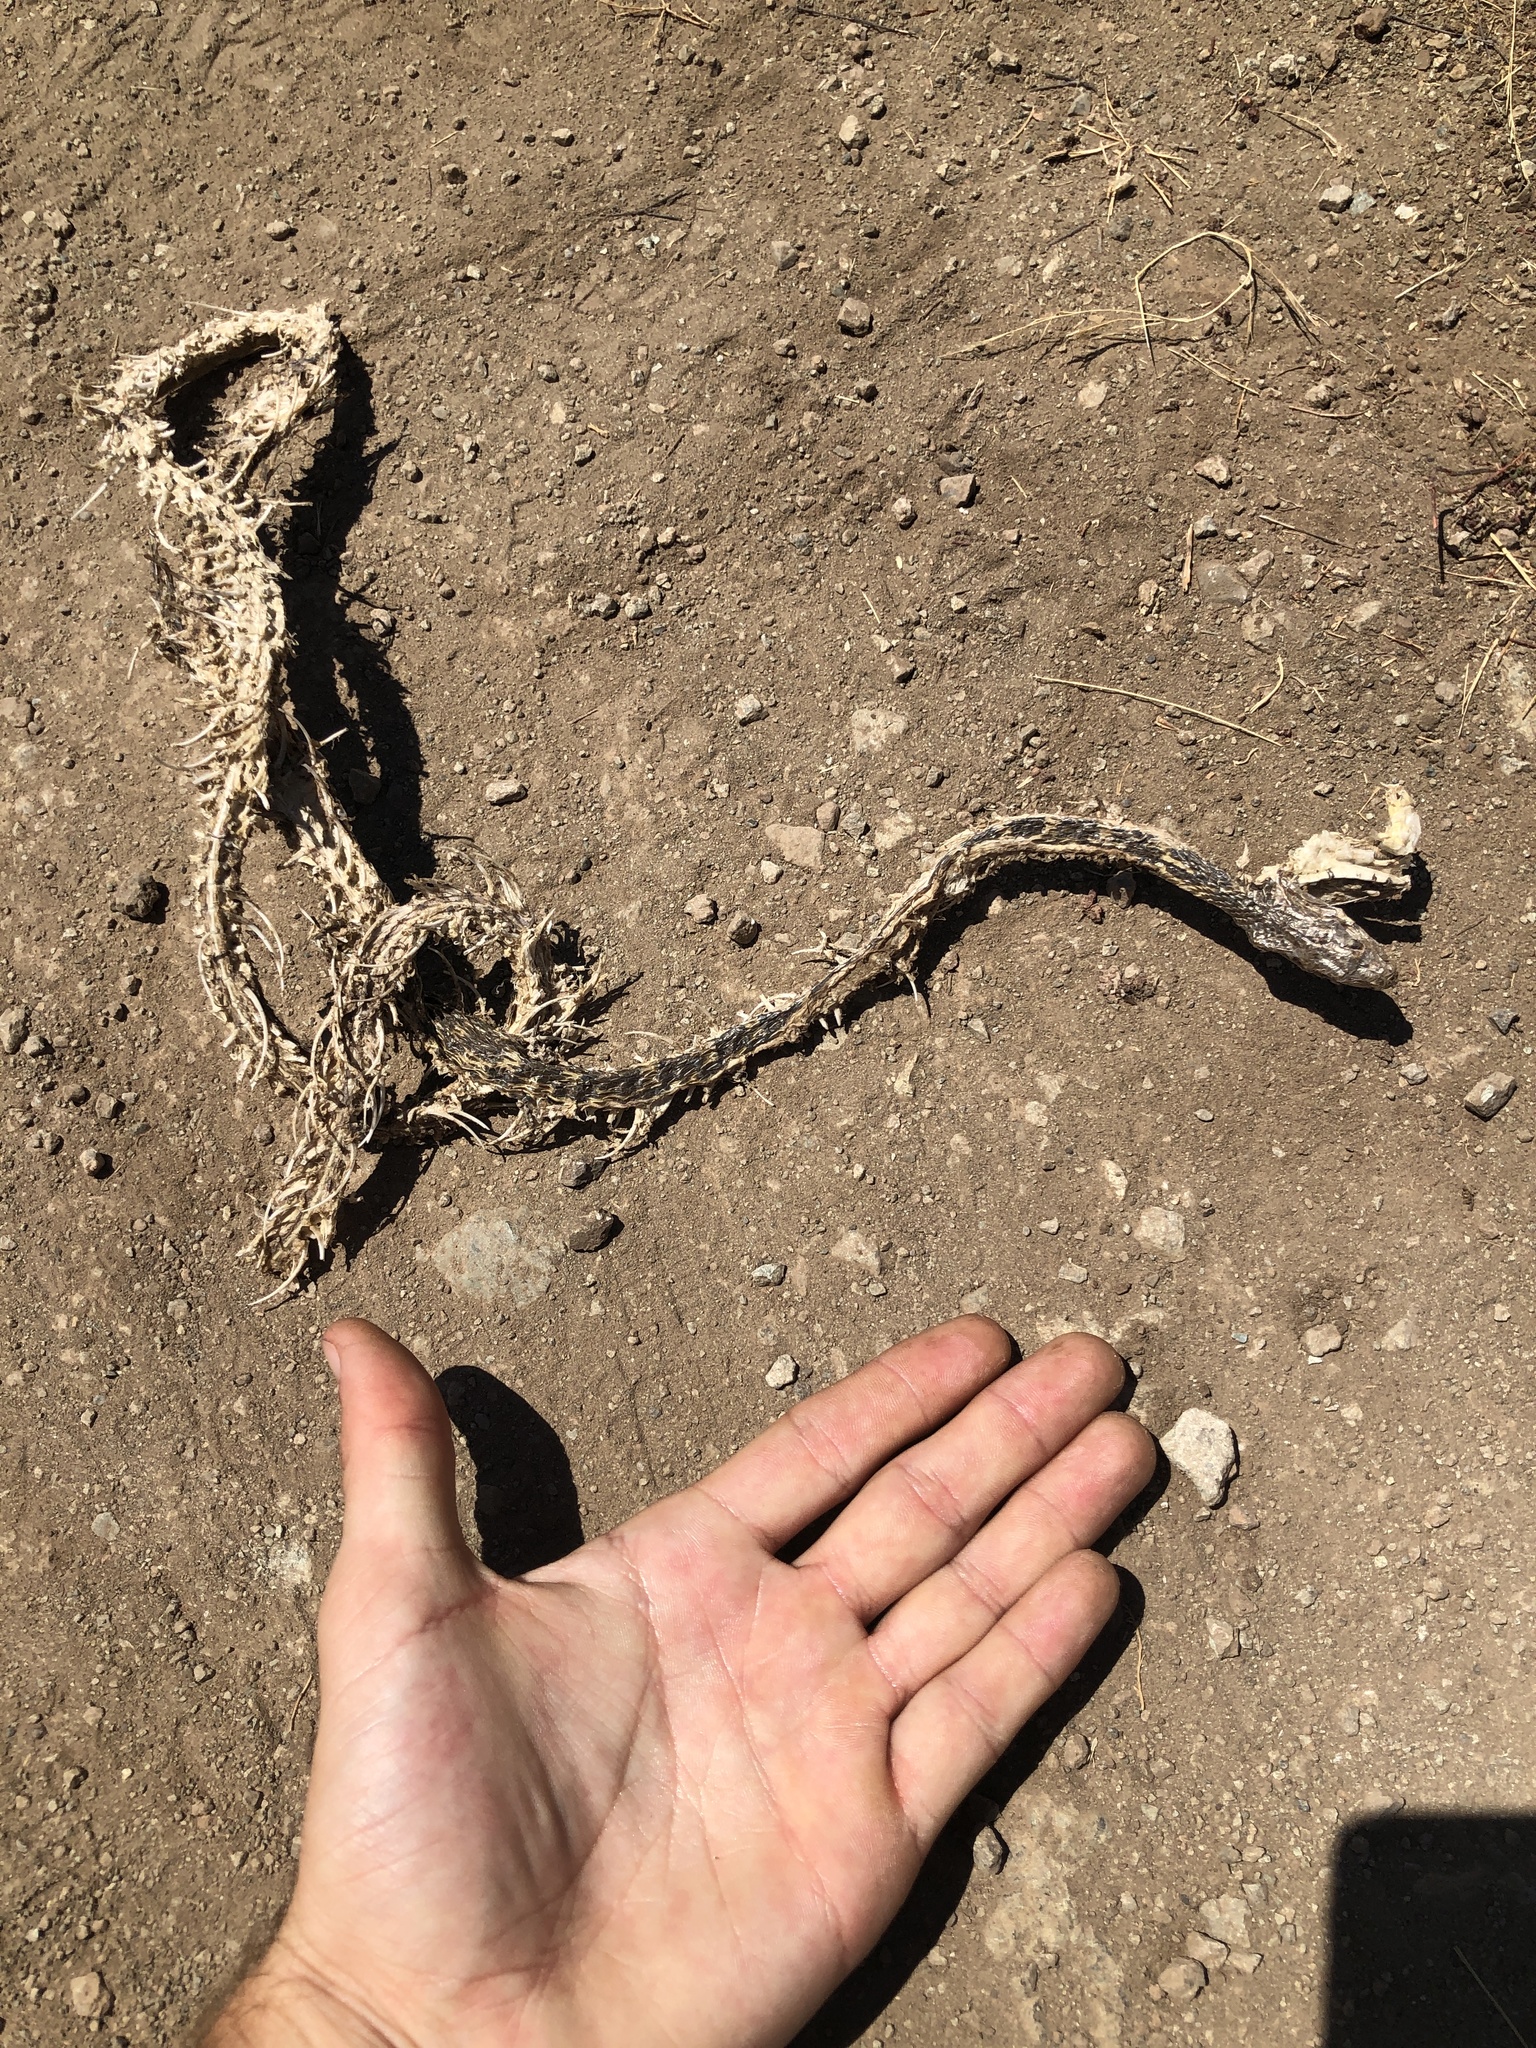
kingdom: Animalia
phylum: Chordata
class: Squamata
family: Colubridae
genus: Pituophis
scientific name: Pituophis catenifer
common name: Gopher snake
